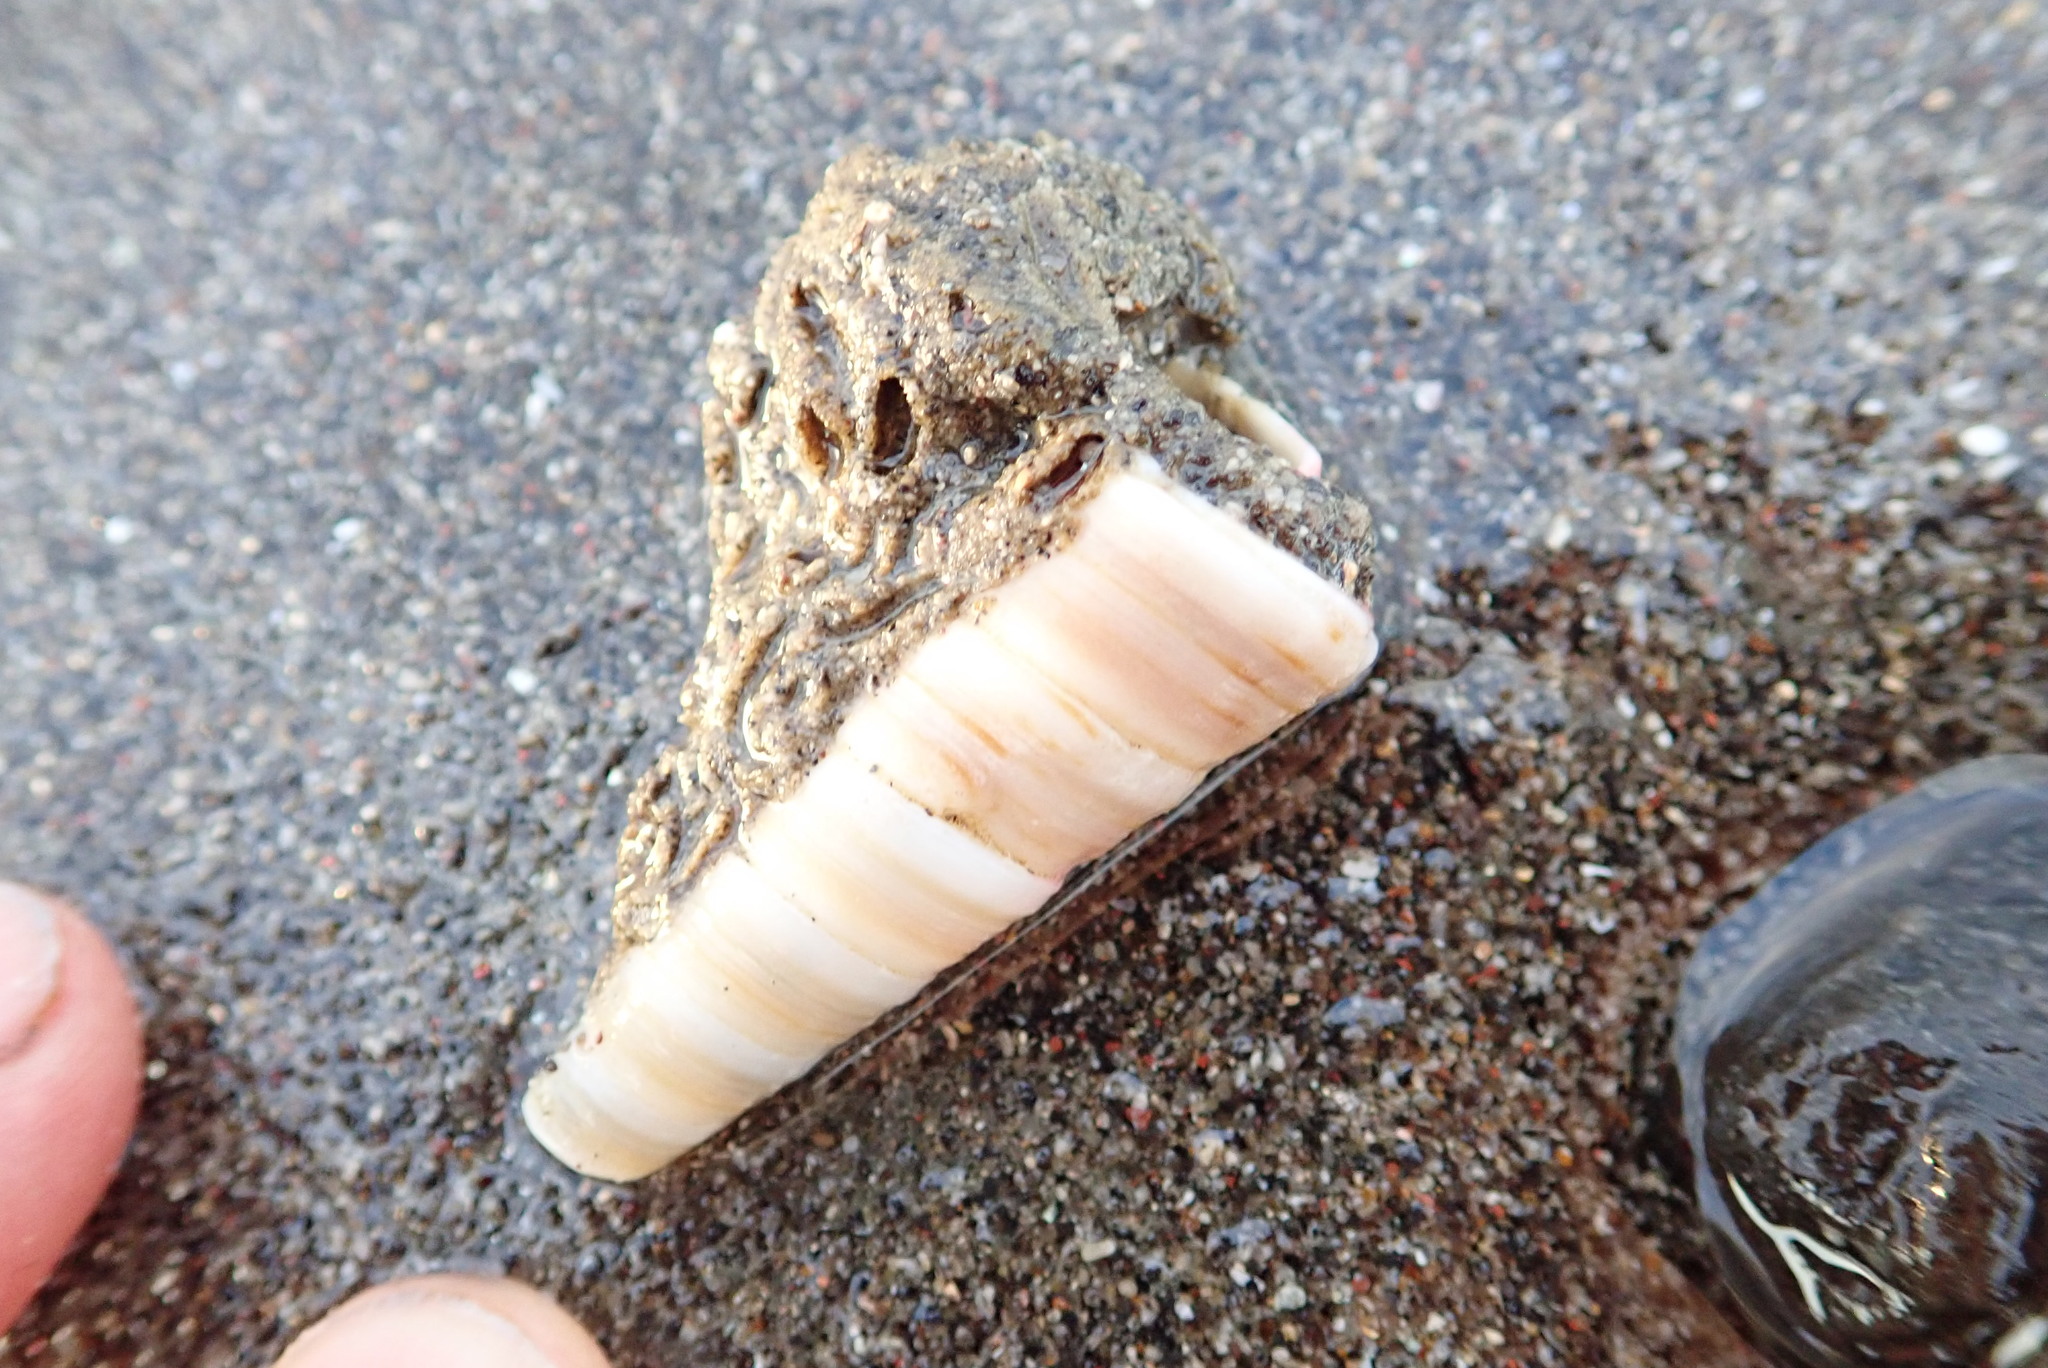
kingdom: Animalia
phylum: Mollusca
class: Gastropoda
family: Turritellidae
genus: Zeacolpus
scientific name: Zeacolpus vittatus
